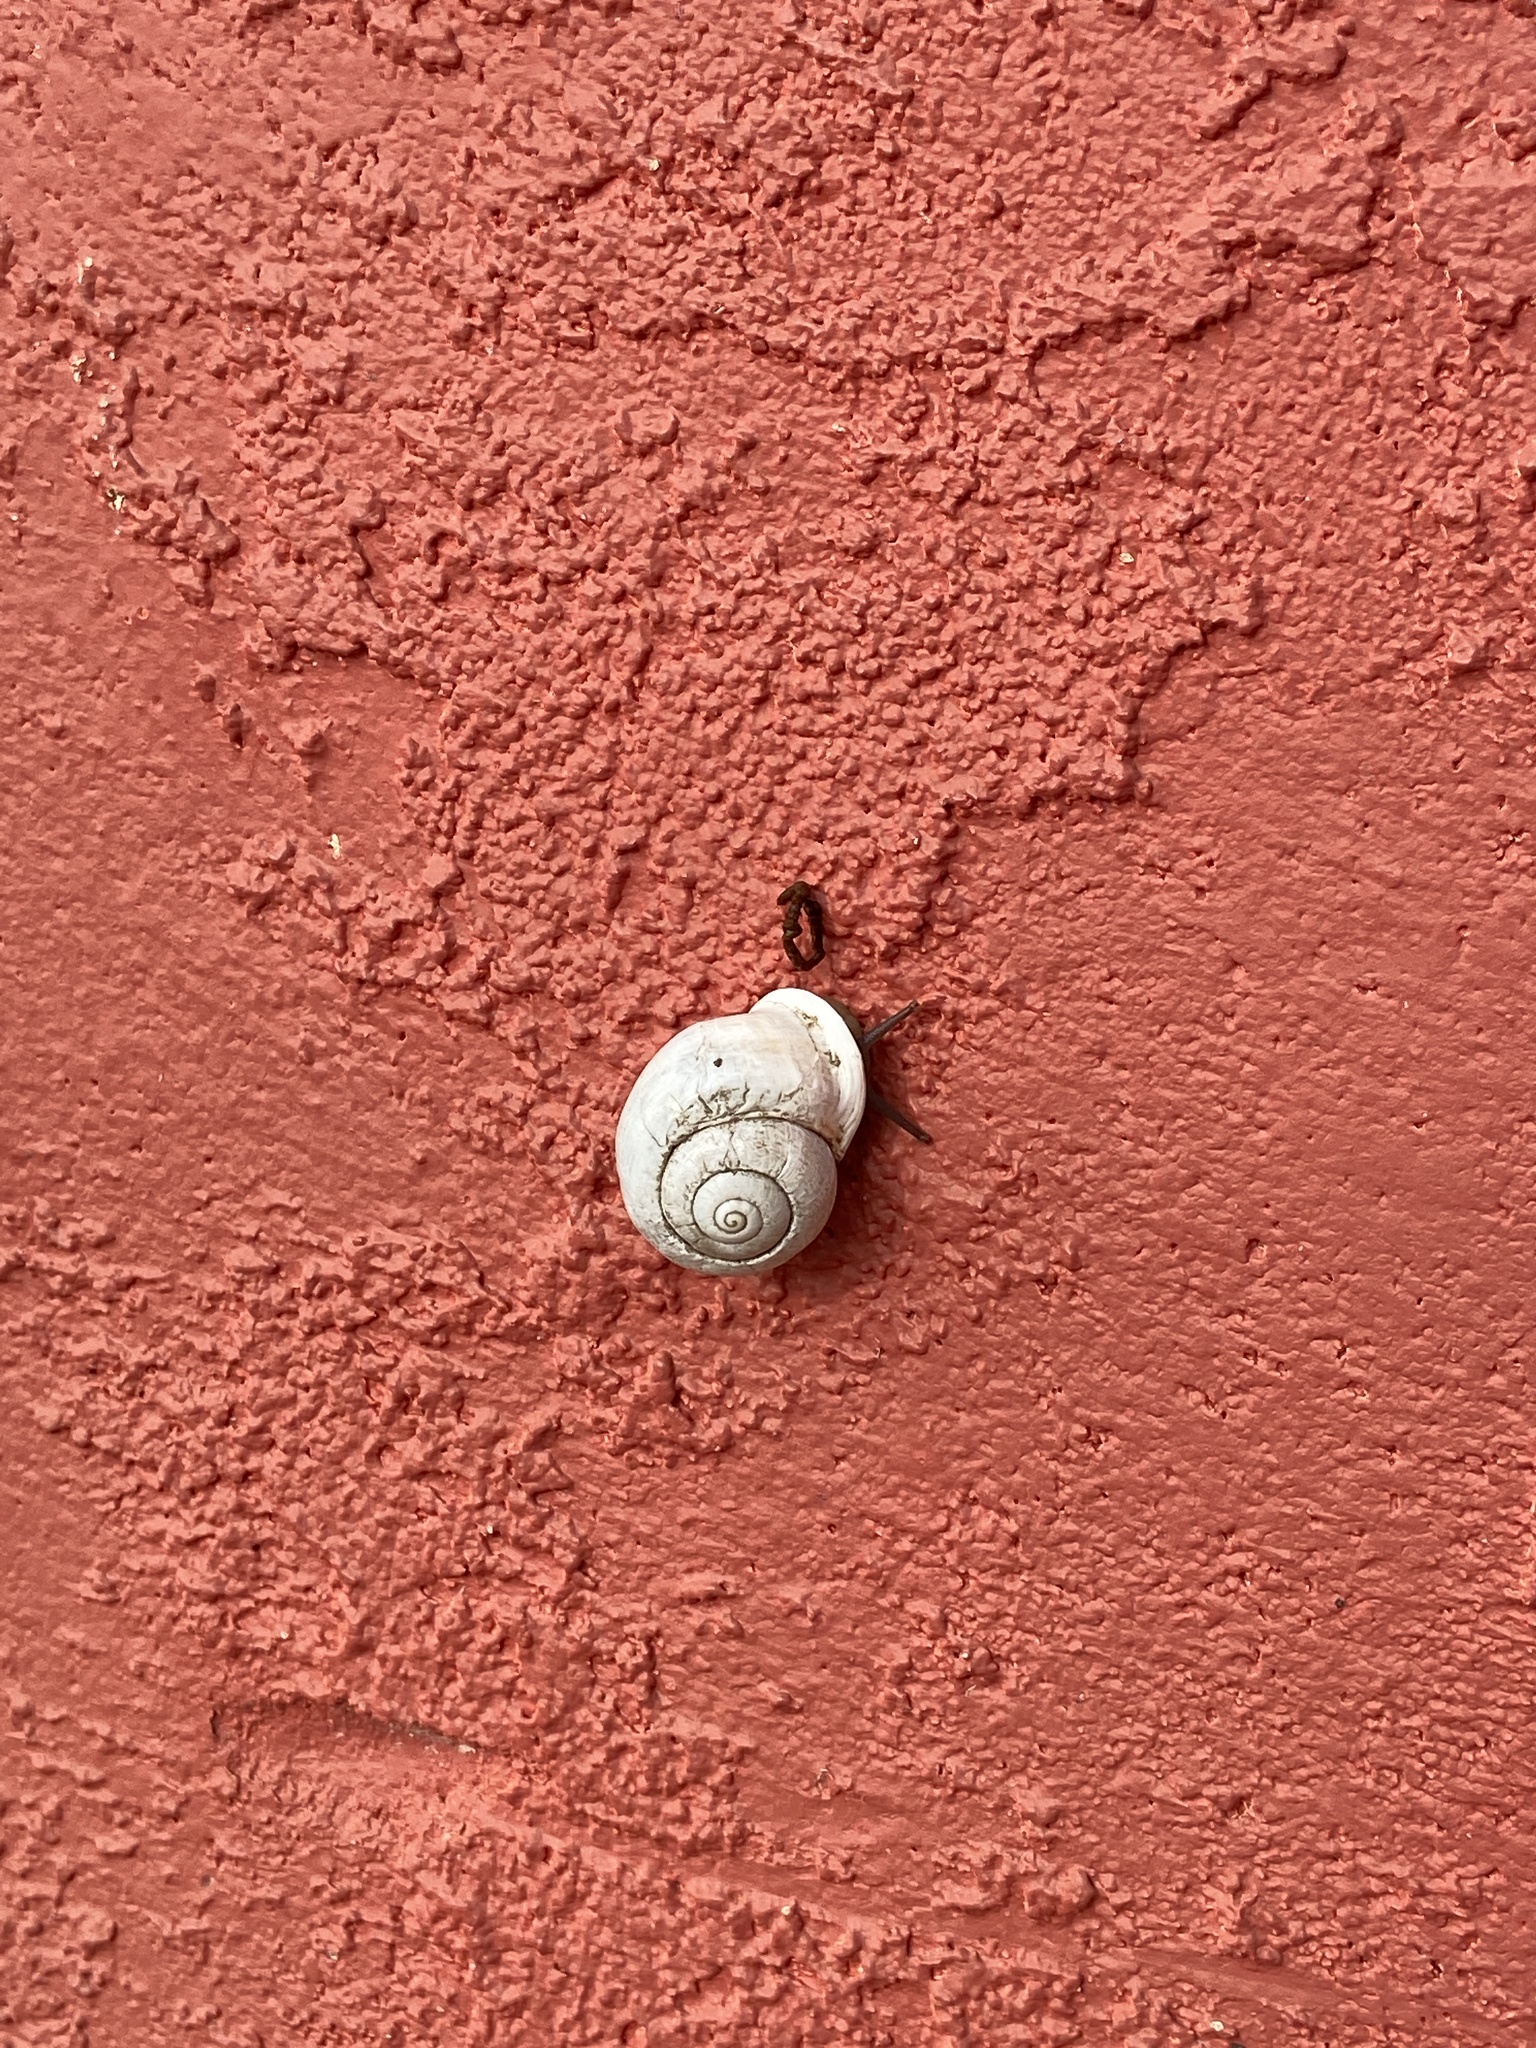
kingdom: Animalia
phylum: Mollusca
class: Gastropoda
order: Cycloneritida
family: Helicinidae
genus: Helicina
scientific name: Helicina orbiculata
